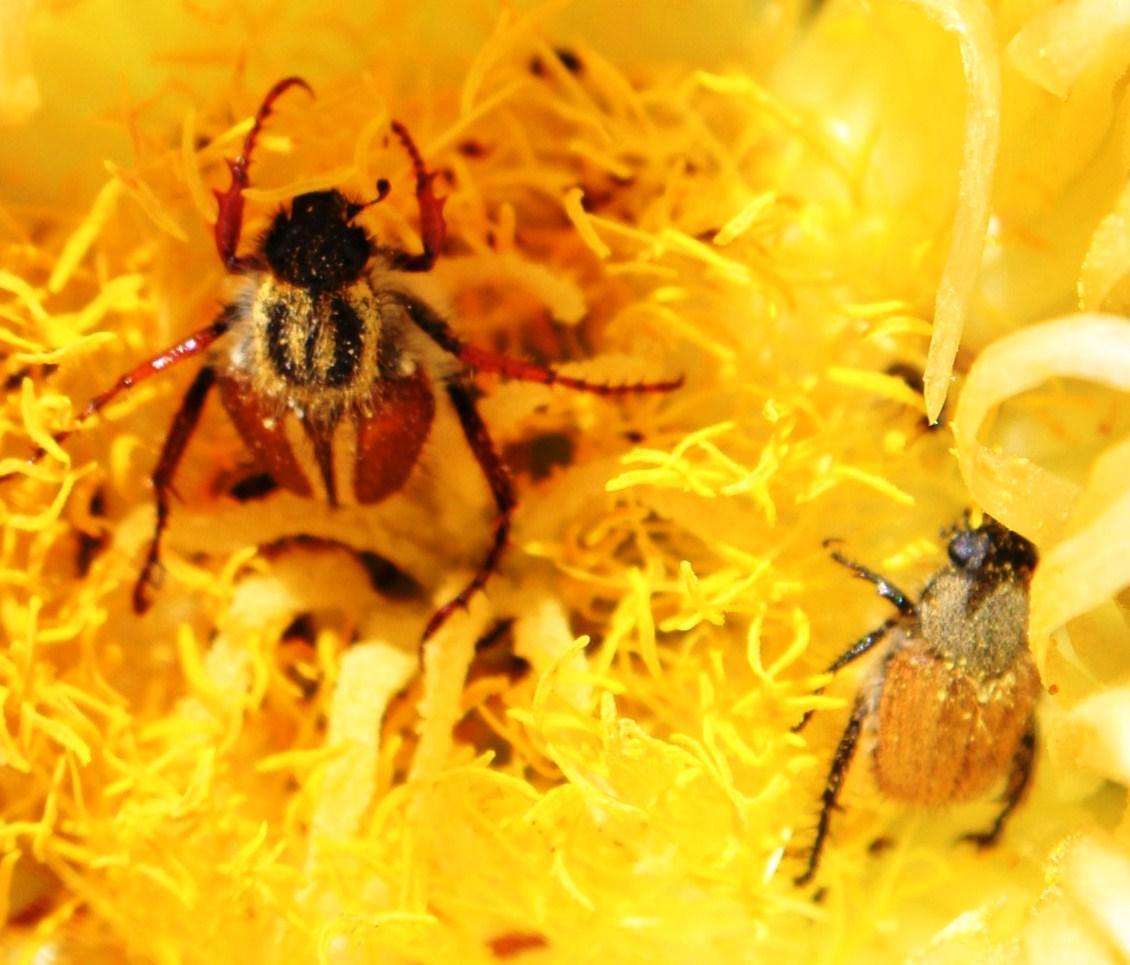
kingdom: Animalia
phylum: Arthropoda
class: Insecta
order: Coleoptera
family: Scarabaeidae
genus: Lepithrix
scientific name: Lepithrix longitarsis
